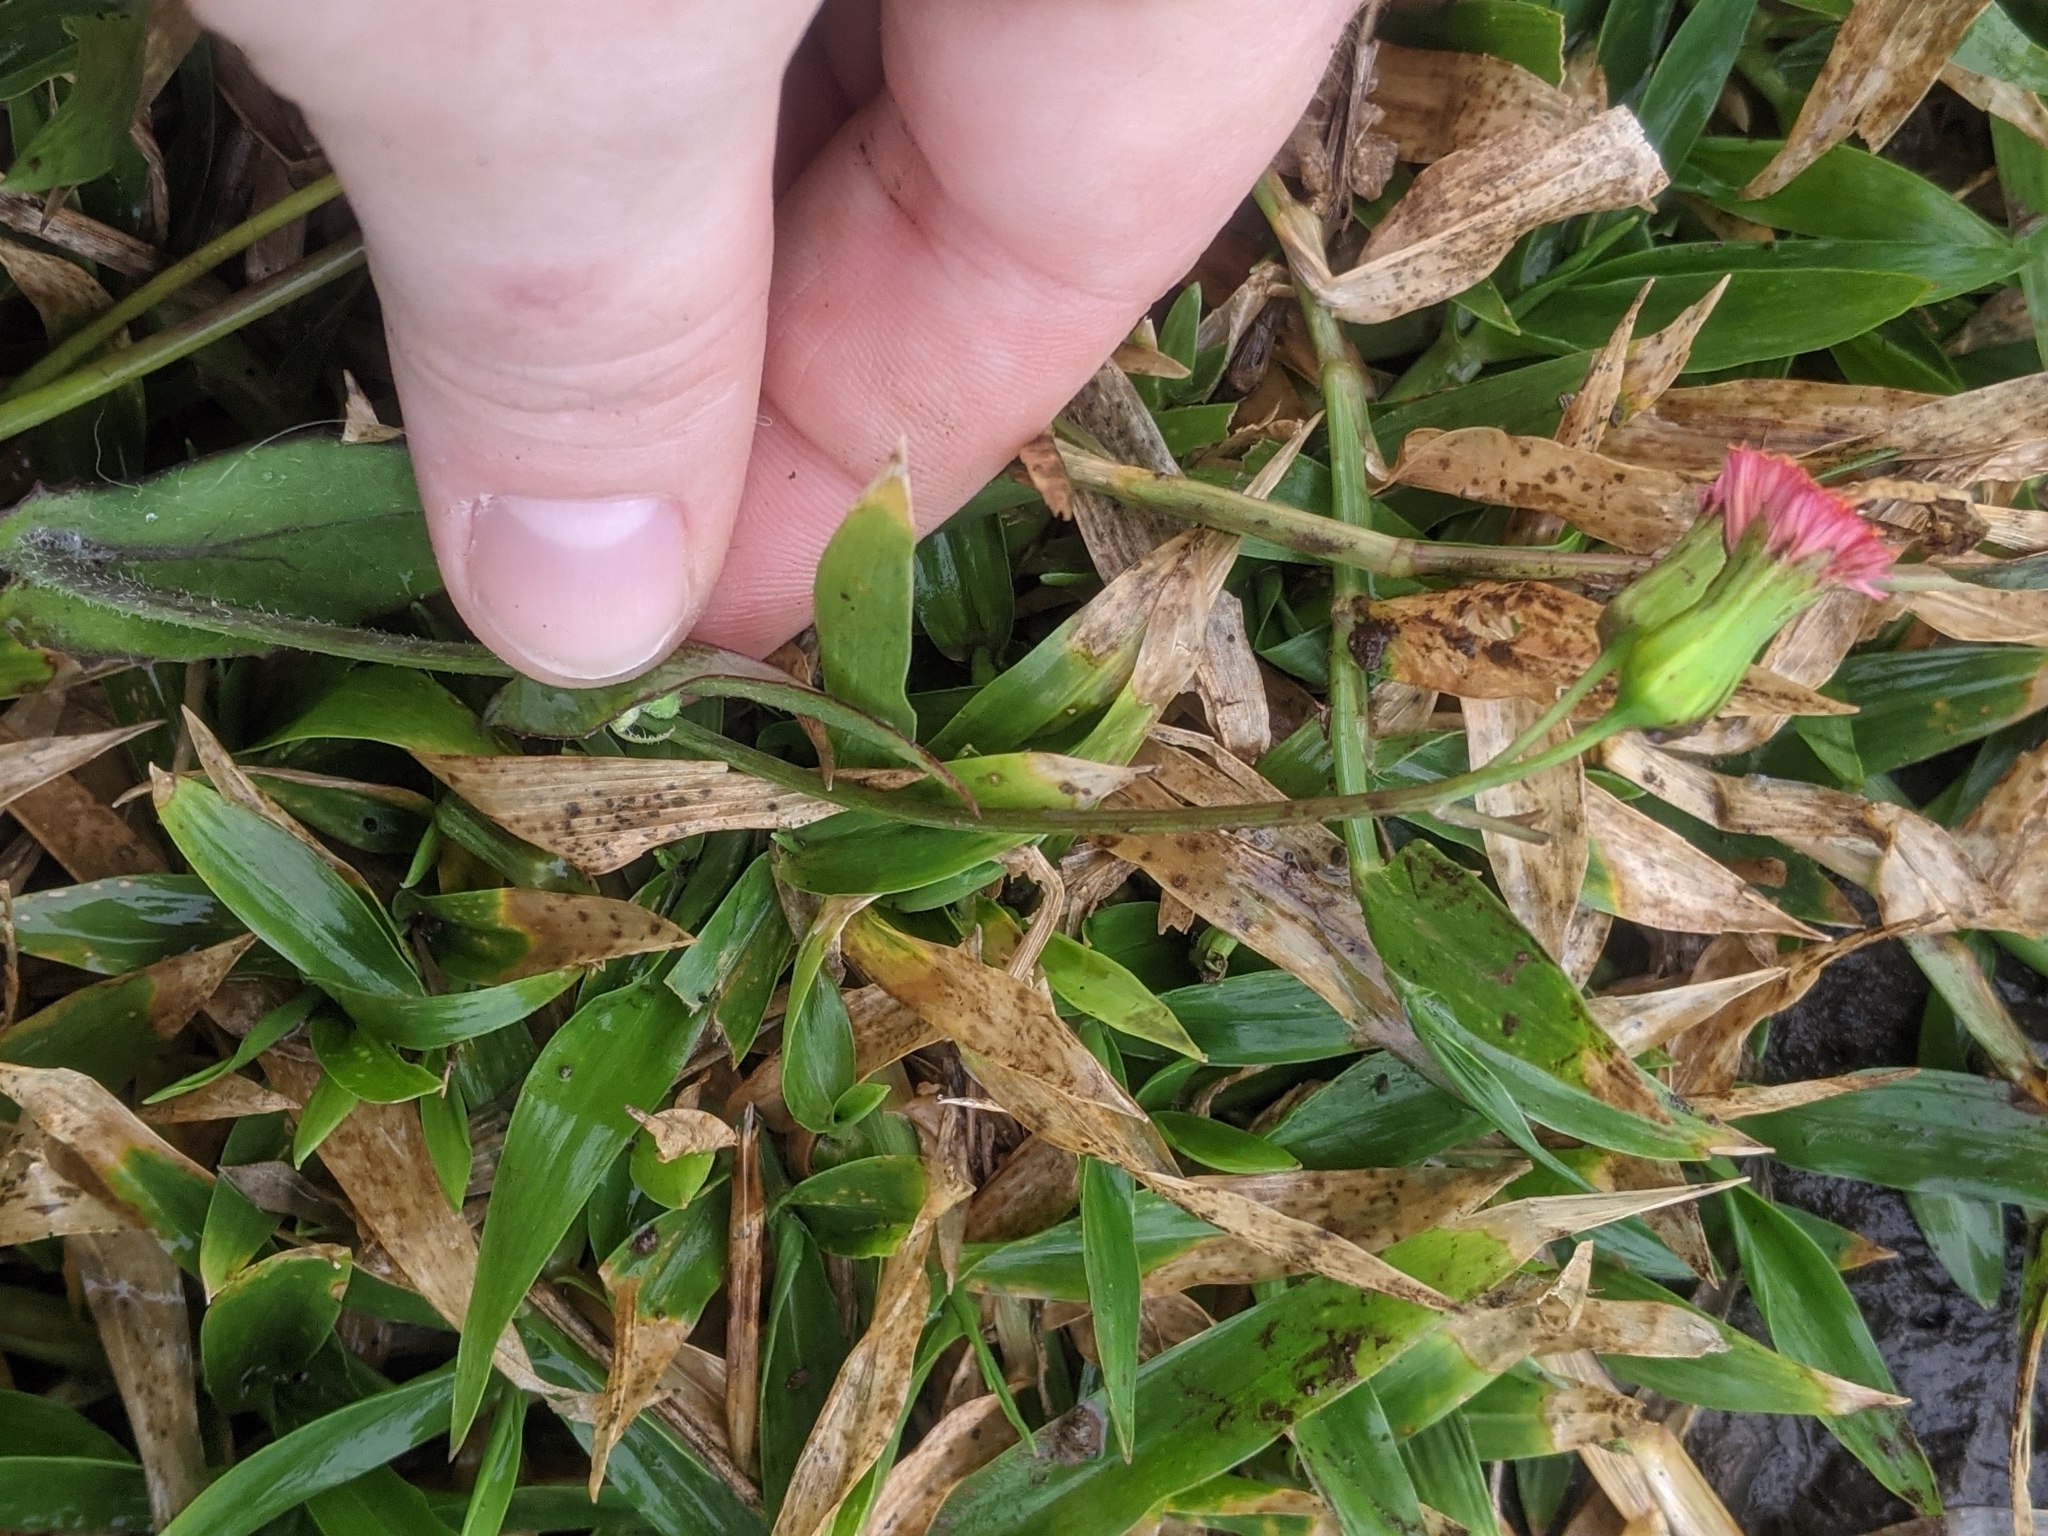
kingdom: Plantae
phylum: Tracheophyta
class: Magnoliopsida
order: Asterales
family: Asteraceae
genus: Emilia
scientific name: Emilia fosbergii
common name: Florida tasselflower
